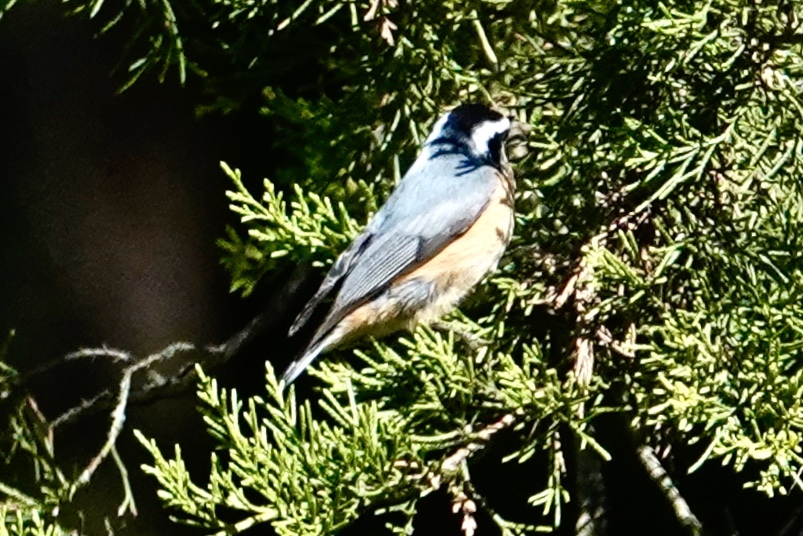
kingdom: Animalia
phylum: Chordata
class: Aves
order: Passeriformes
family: Sittidae
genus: Sitta
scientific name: Sitta canadensis
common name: Red-breasted nuthatch
